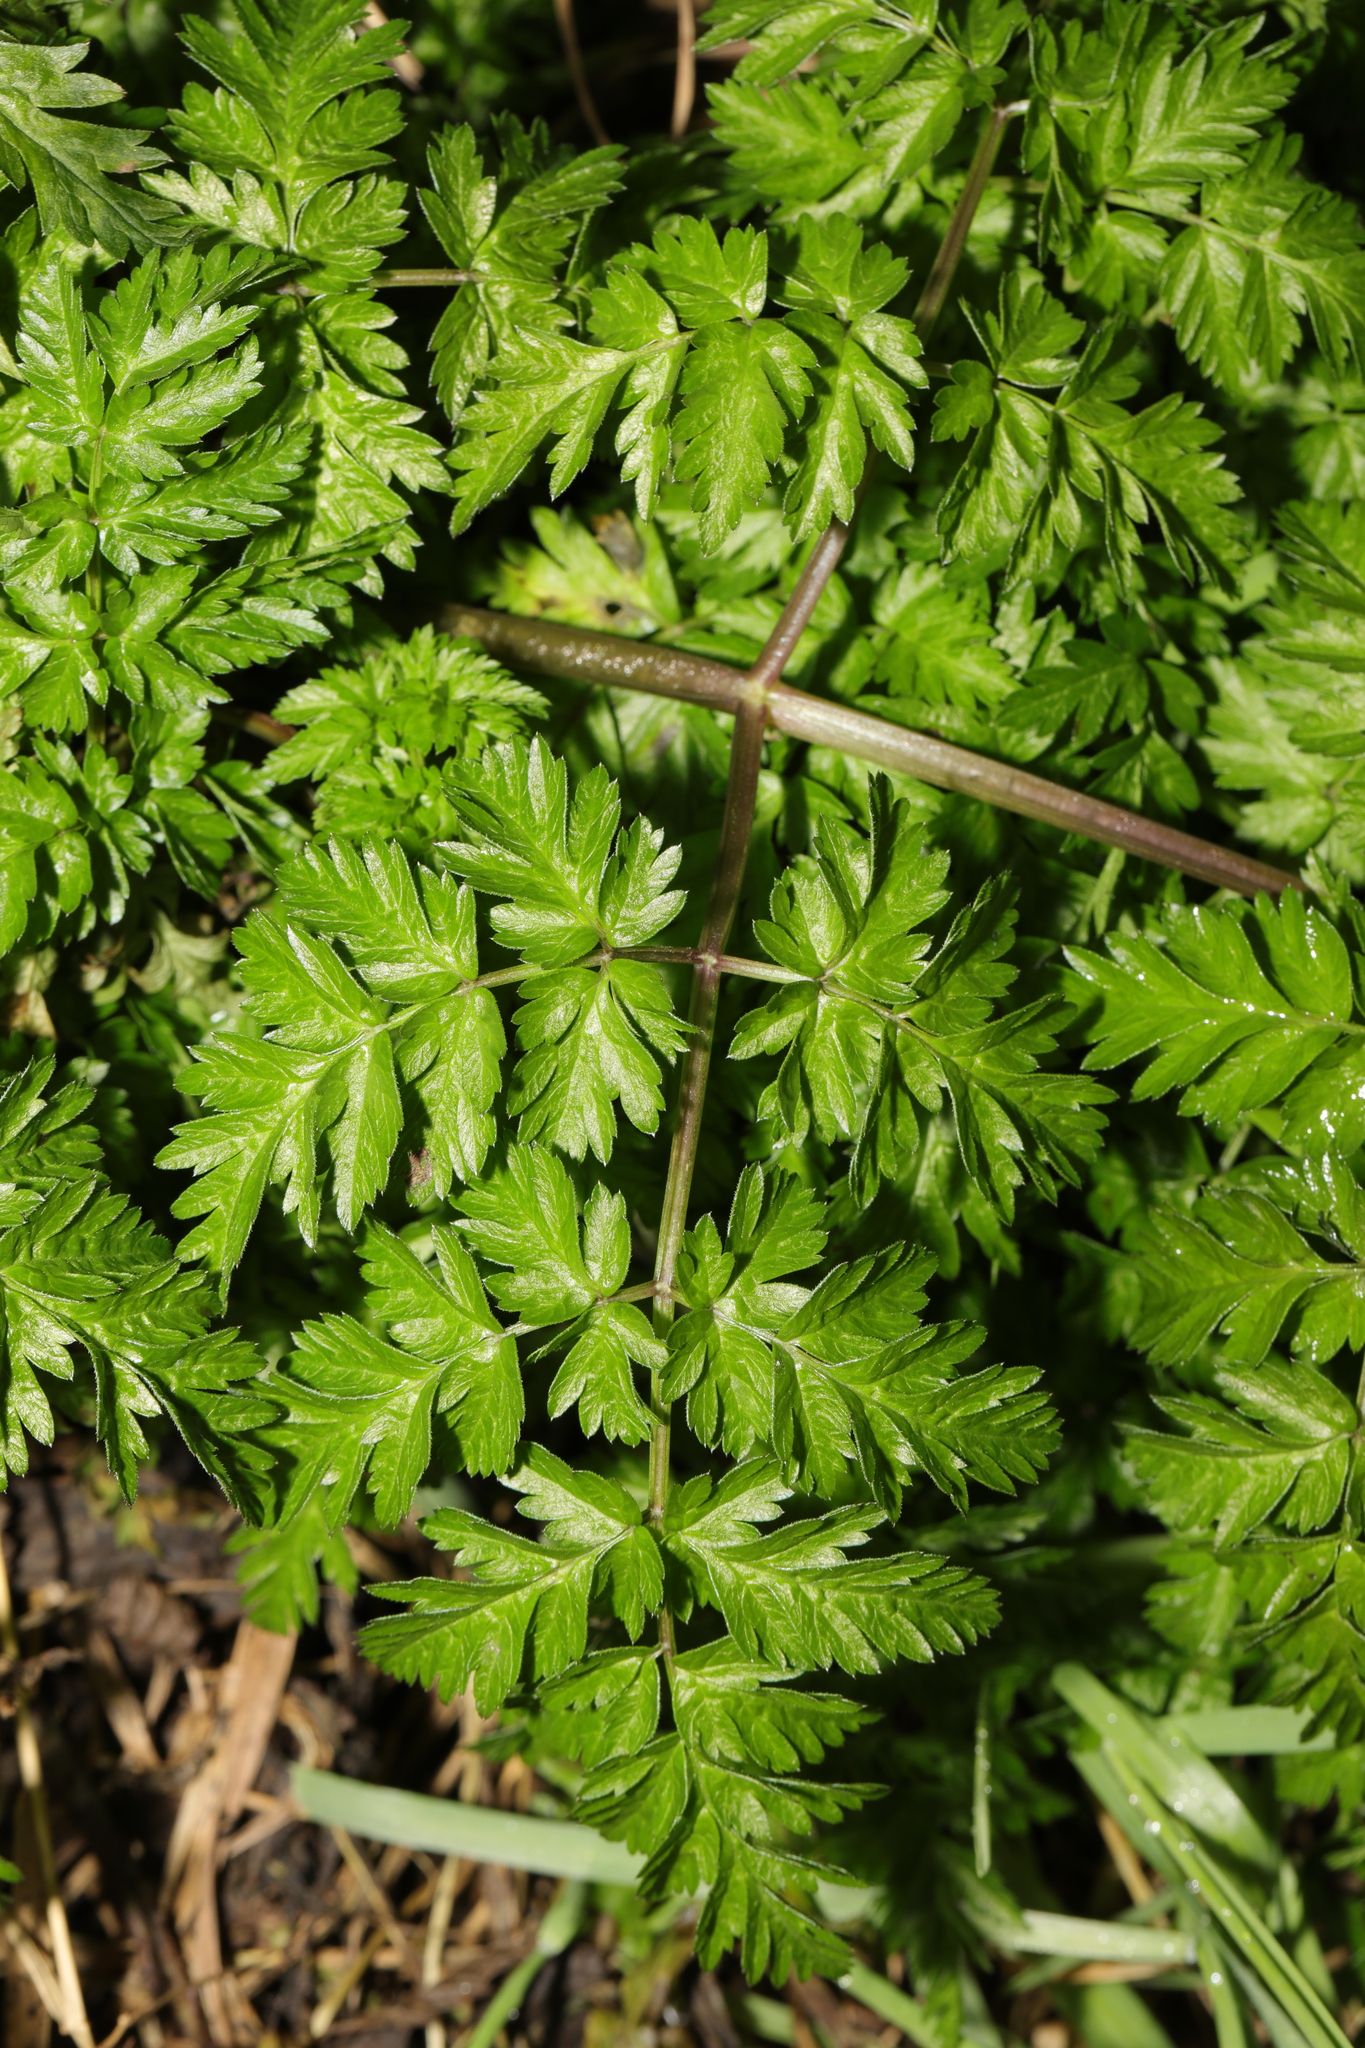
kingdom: Plantae
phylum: Tracheophyta
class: Magnoliopsida
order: Apiales
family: Apiaceae
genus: Anthriscus
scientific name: Anthriscus sylvestris
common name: Cow parsley
